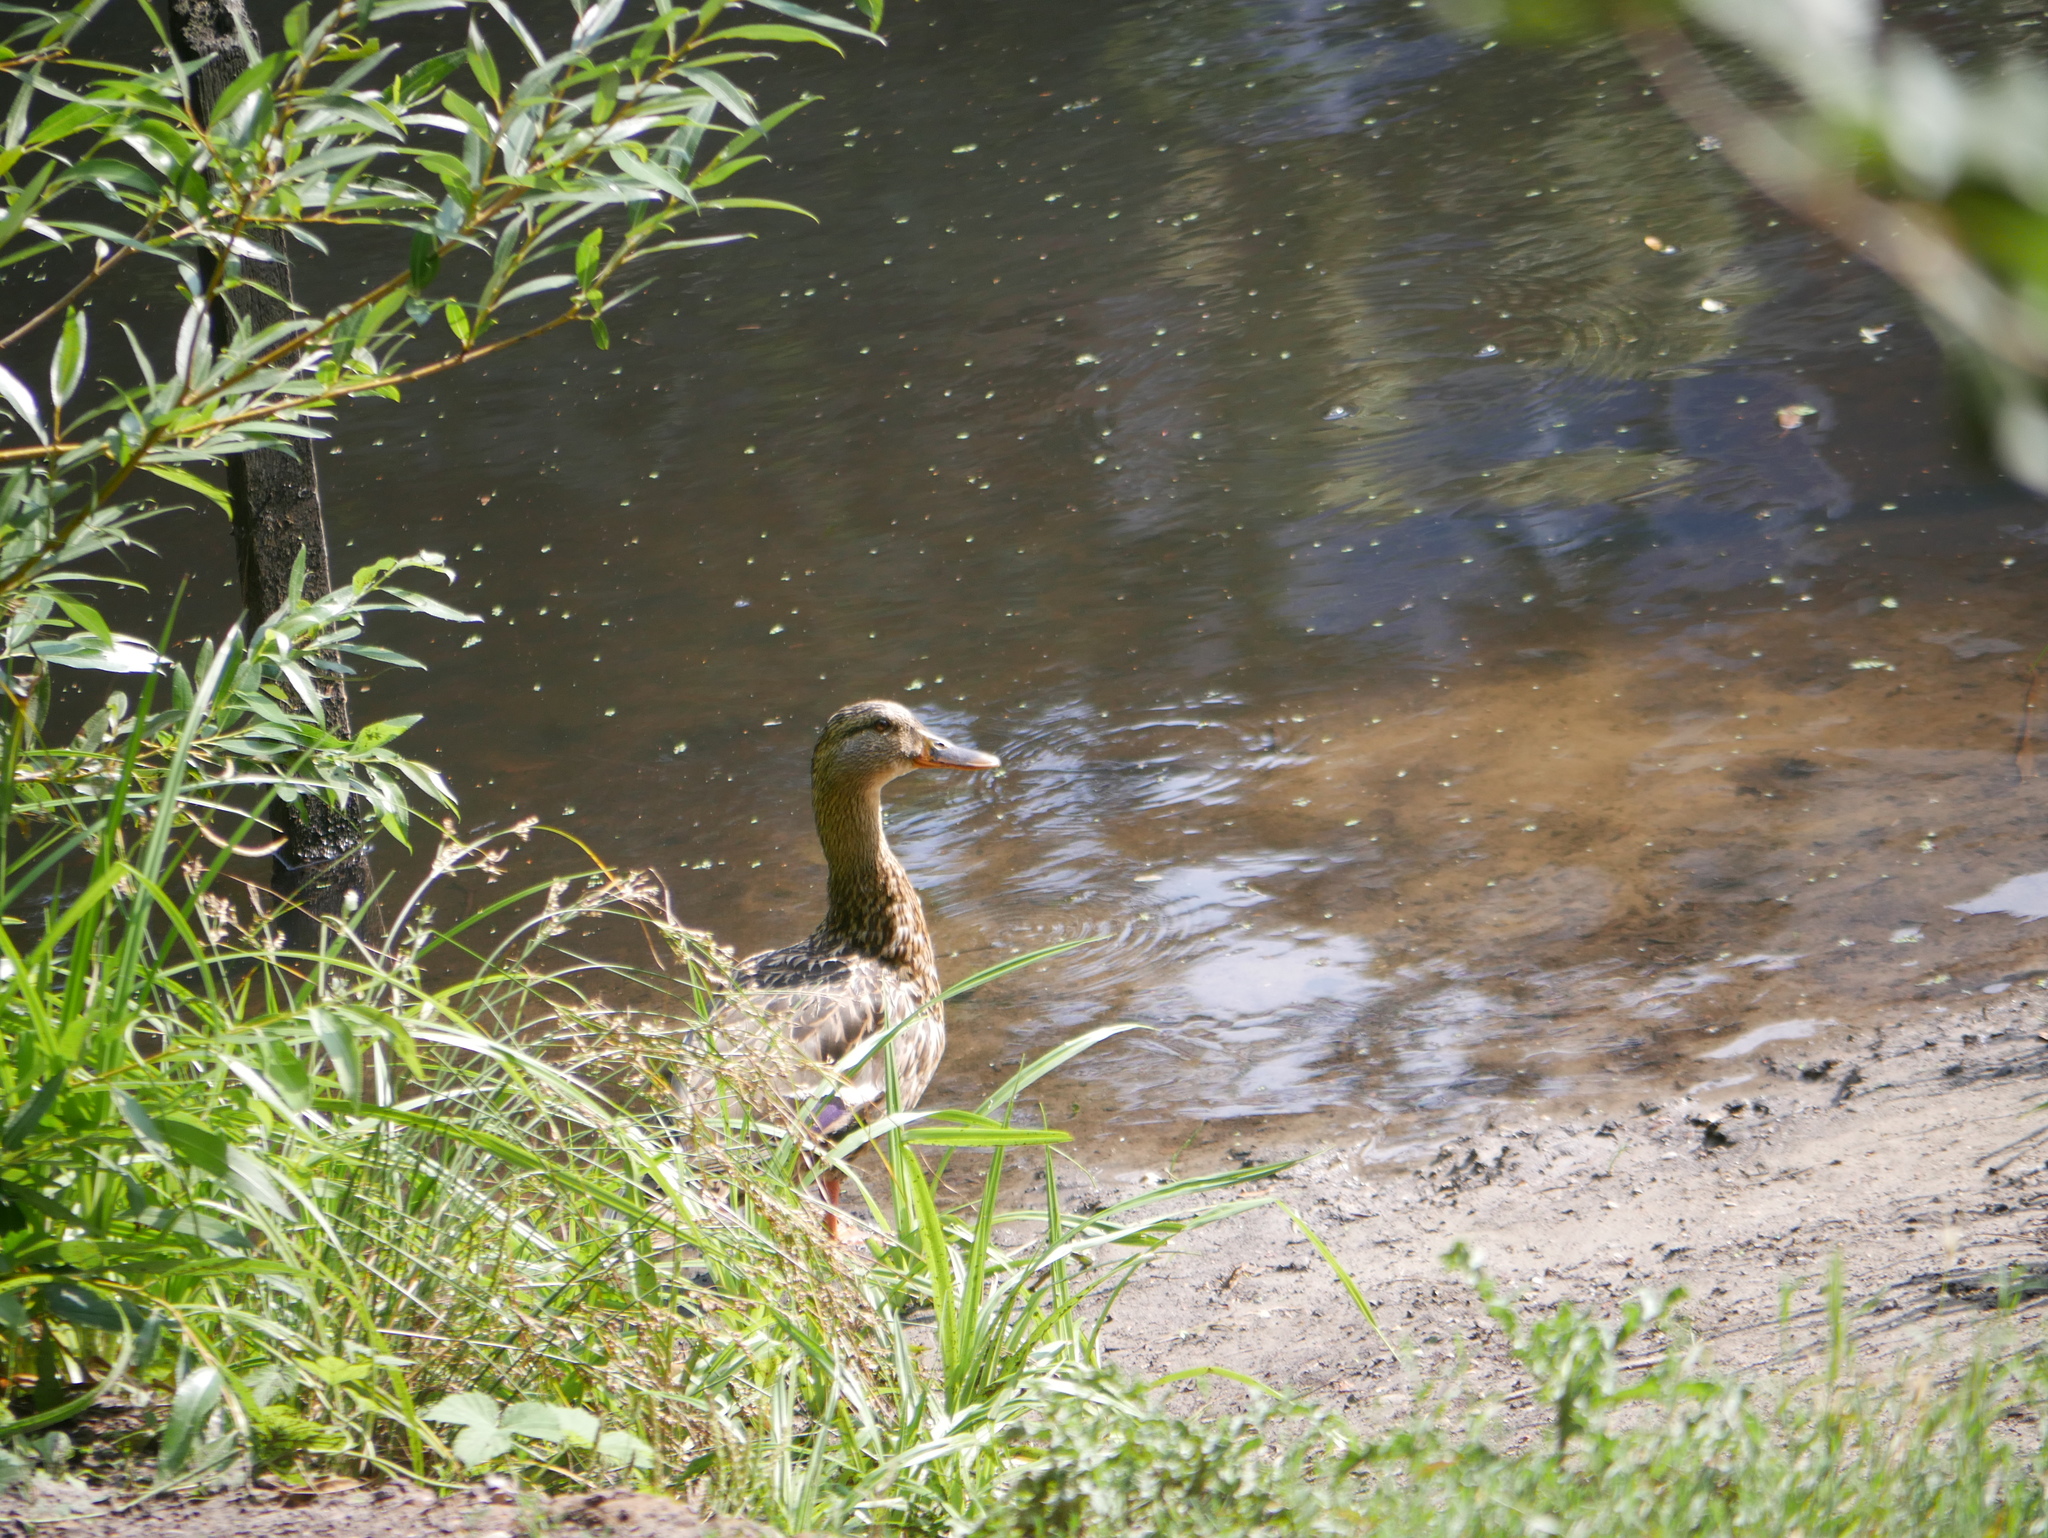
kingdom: Animalia
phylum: Chordata
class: Aves
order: Anseriformes
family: Anatidae
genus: Anas
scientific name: Anas platyrhynchos
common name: Mallard
